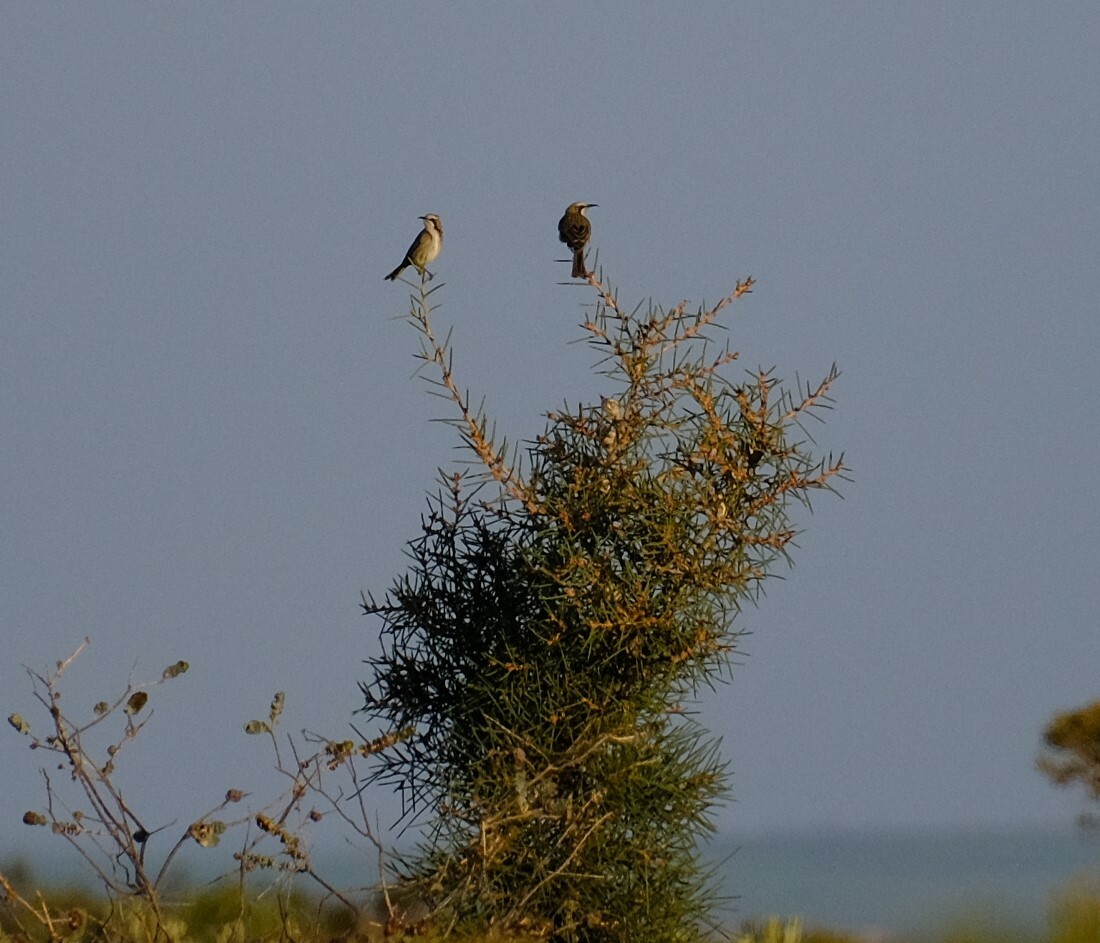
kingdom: Animalia
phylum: Chordata
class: Aves
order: Passeriformes
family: Meliphagidae
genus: Gliciphila
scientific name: Gliciphila melanops
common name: Tawny-crowned honeyeater
